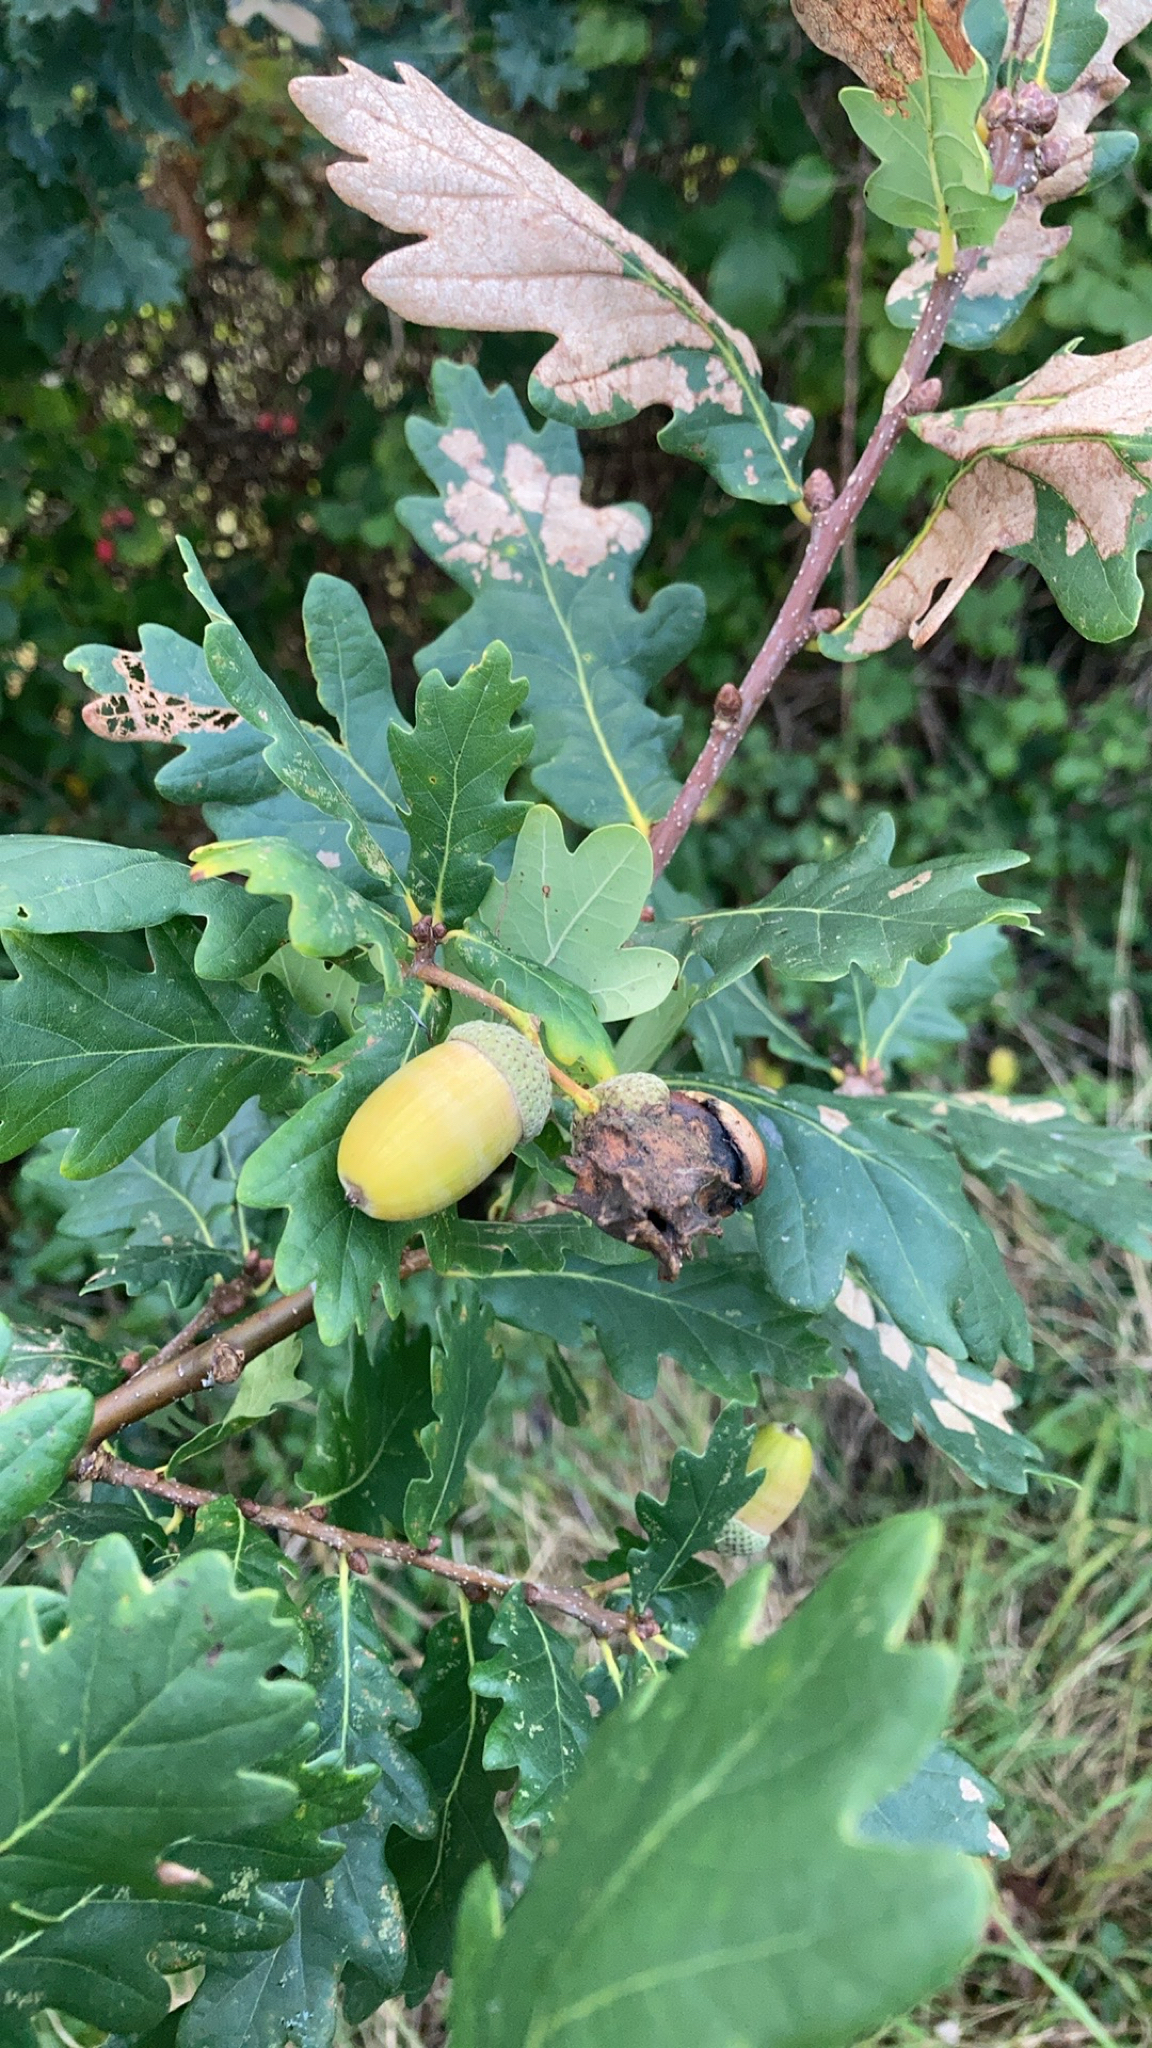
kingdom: Plantae
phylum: Tracheophyta
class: Magnoliopsida
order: Fagales
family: Fagaceae
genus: Quercus
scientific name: Quercus robur
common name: Pedunculate oak
